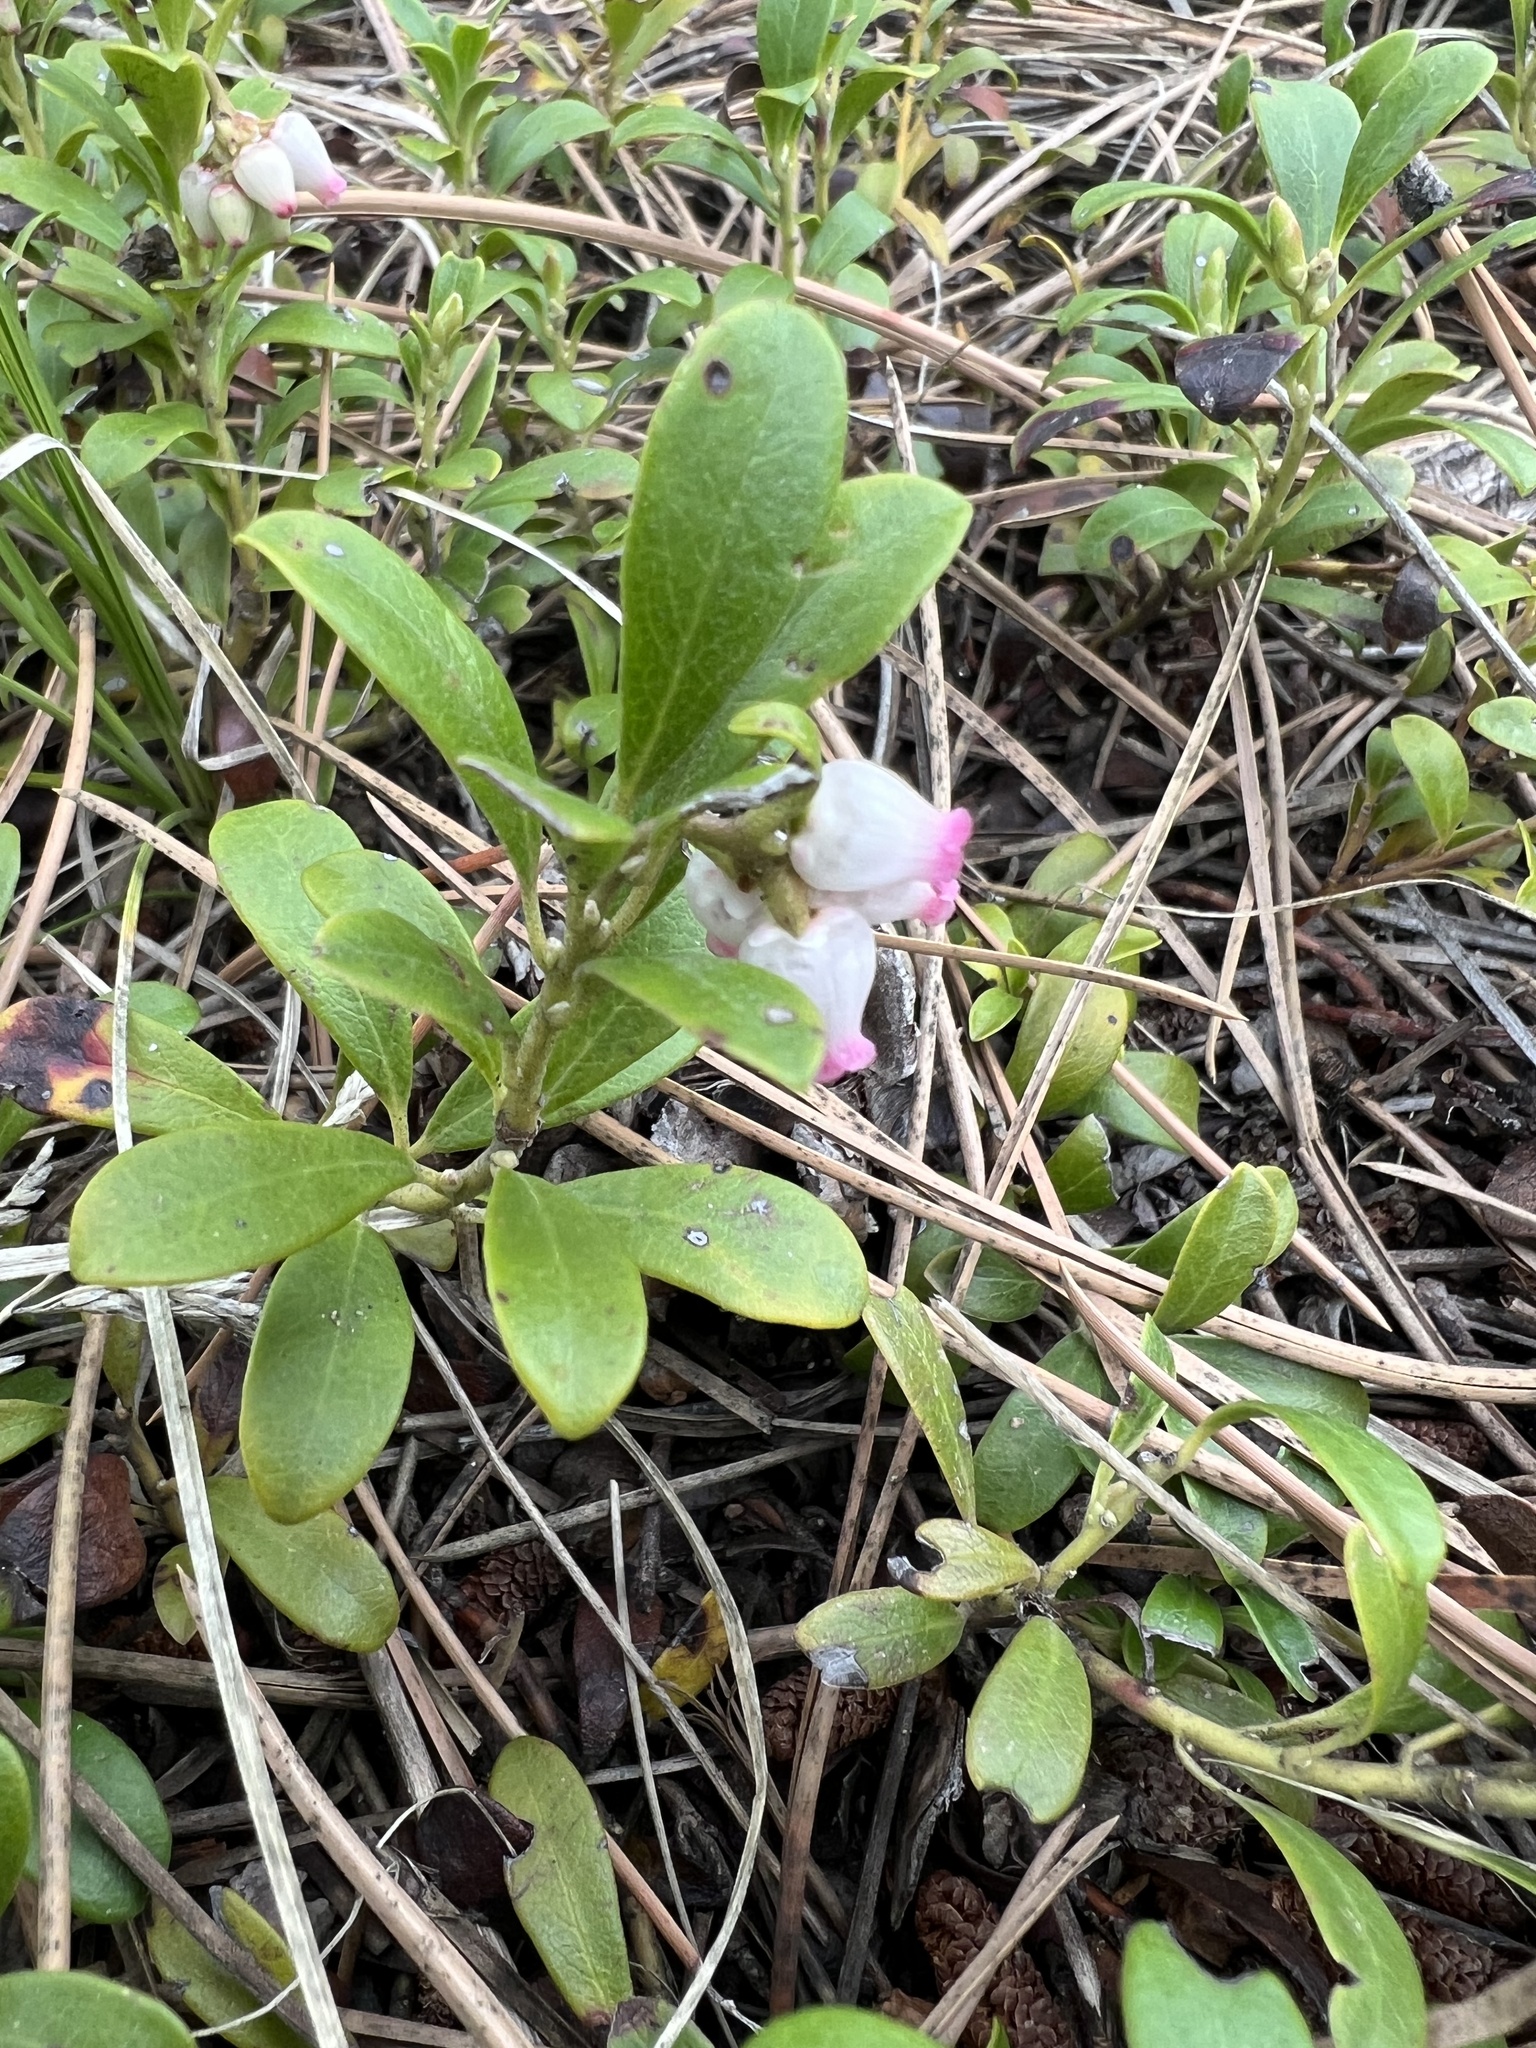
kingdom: Plantae
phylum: Tracheophyta
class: Magnoliopsida
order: Ericales
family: Ericaceae
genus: Arctostaphylos
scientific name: Arctostaphylos uva-ursi
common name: Bearberry
